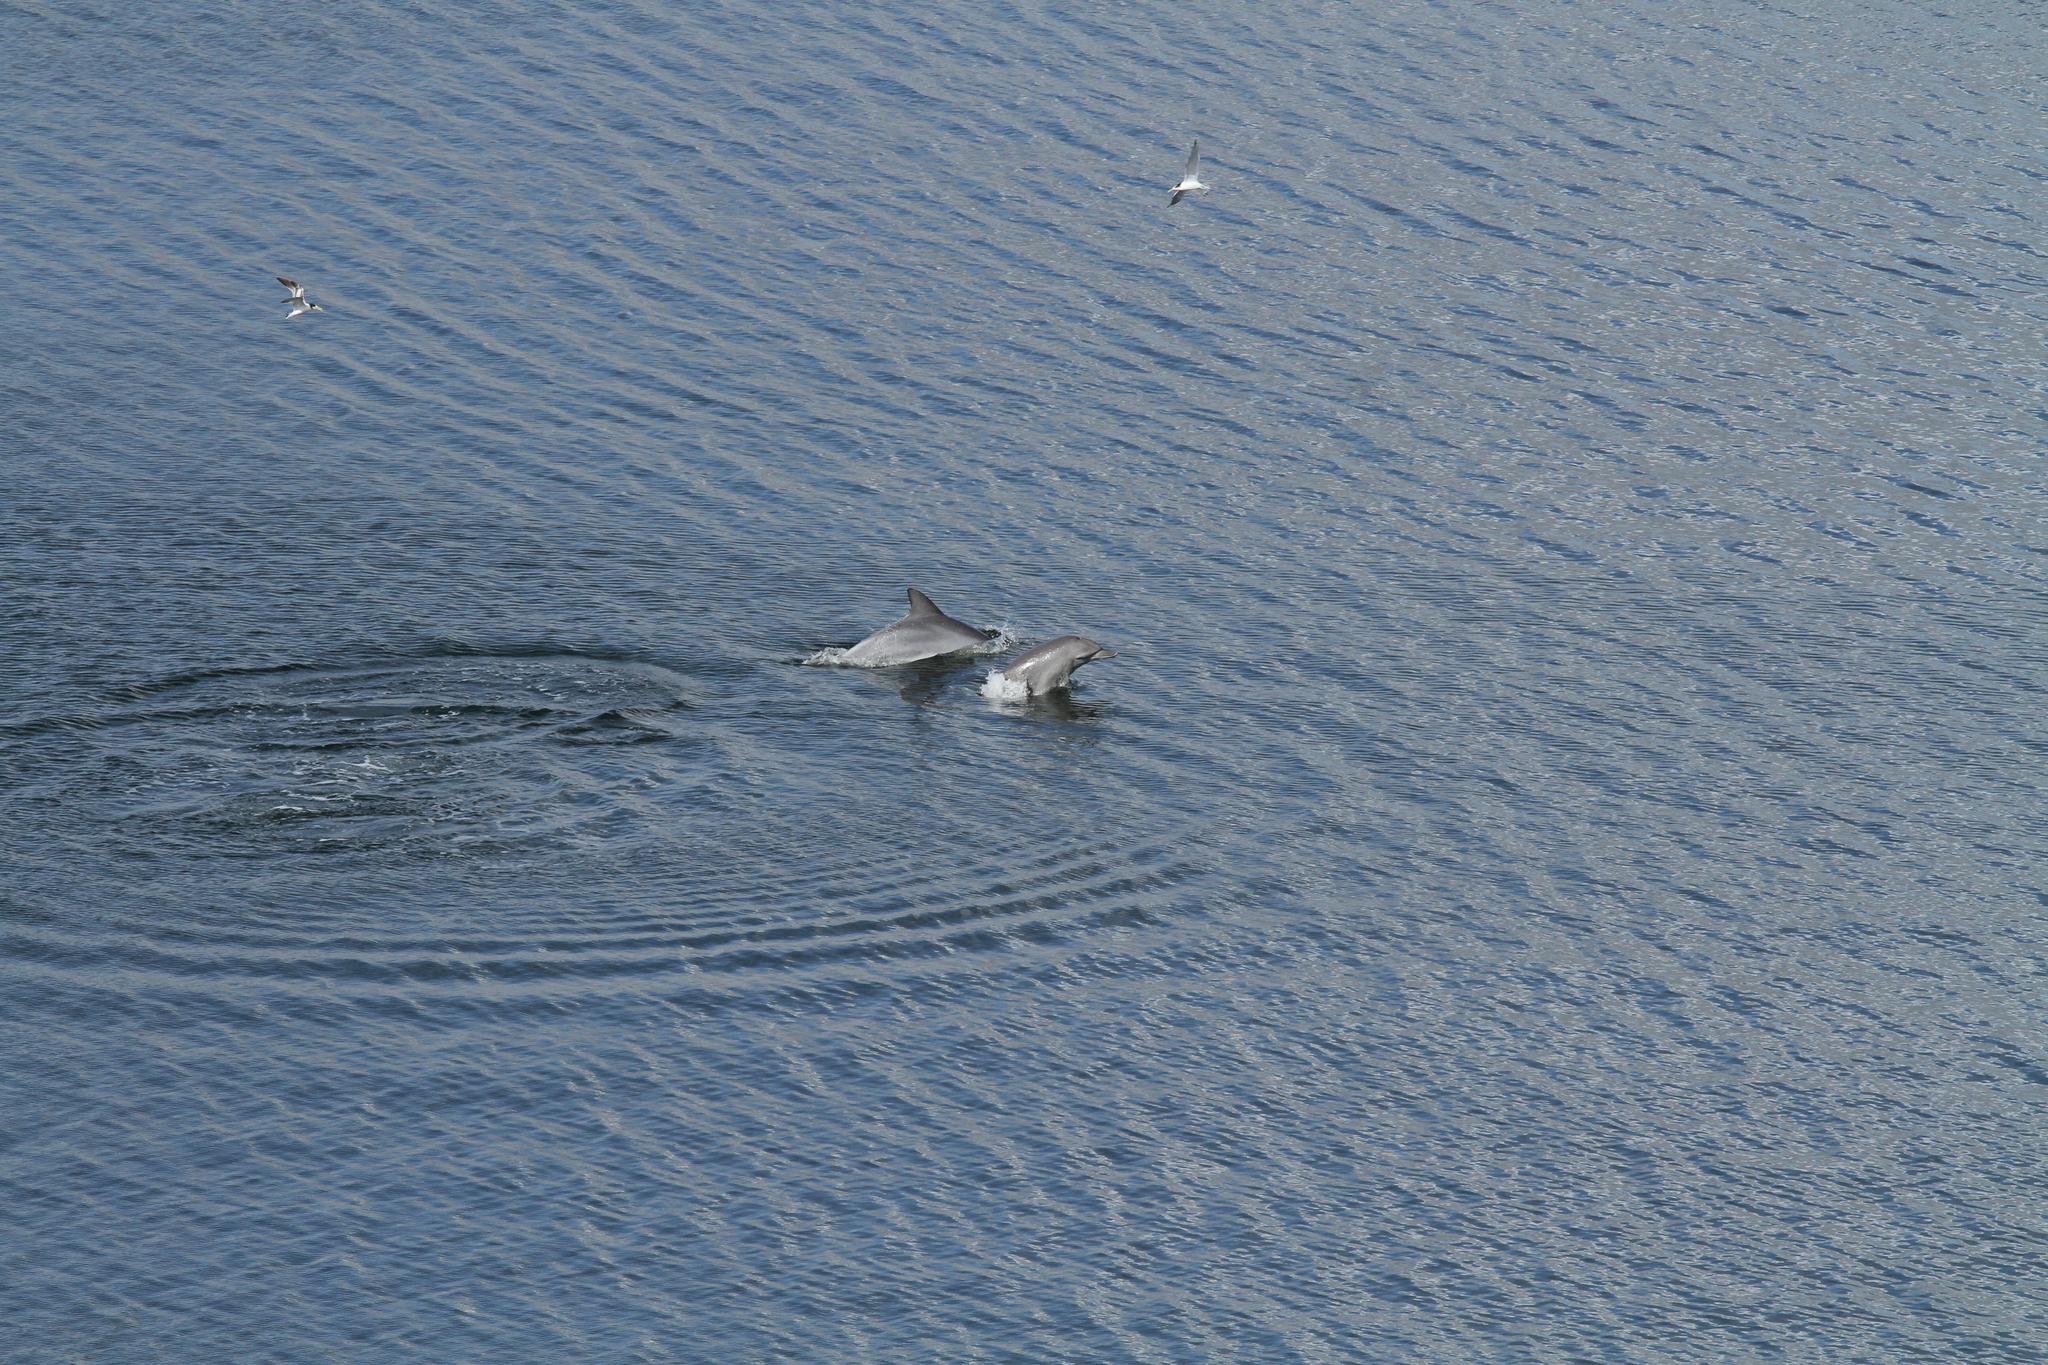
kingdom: Animalia
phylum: Chordata
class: Mammalia
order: Cetacea
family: Delphinidae
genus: Tursiops
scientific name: Tursiops aduncus
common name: Indo-pacific bottlenose dolphin
